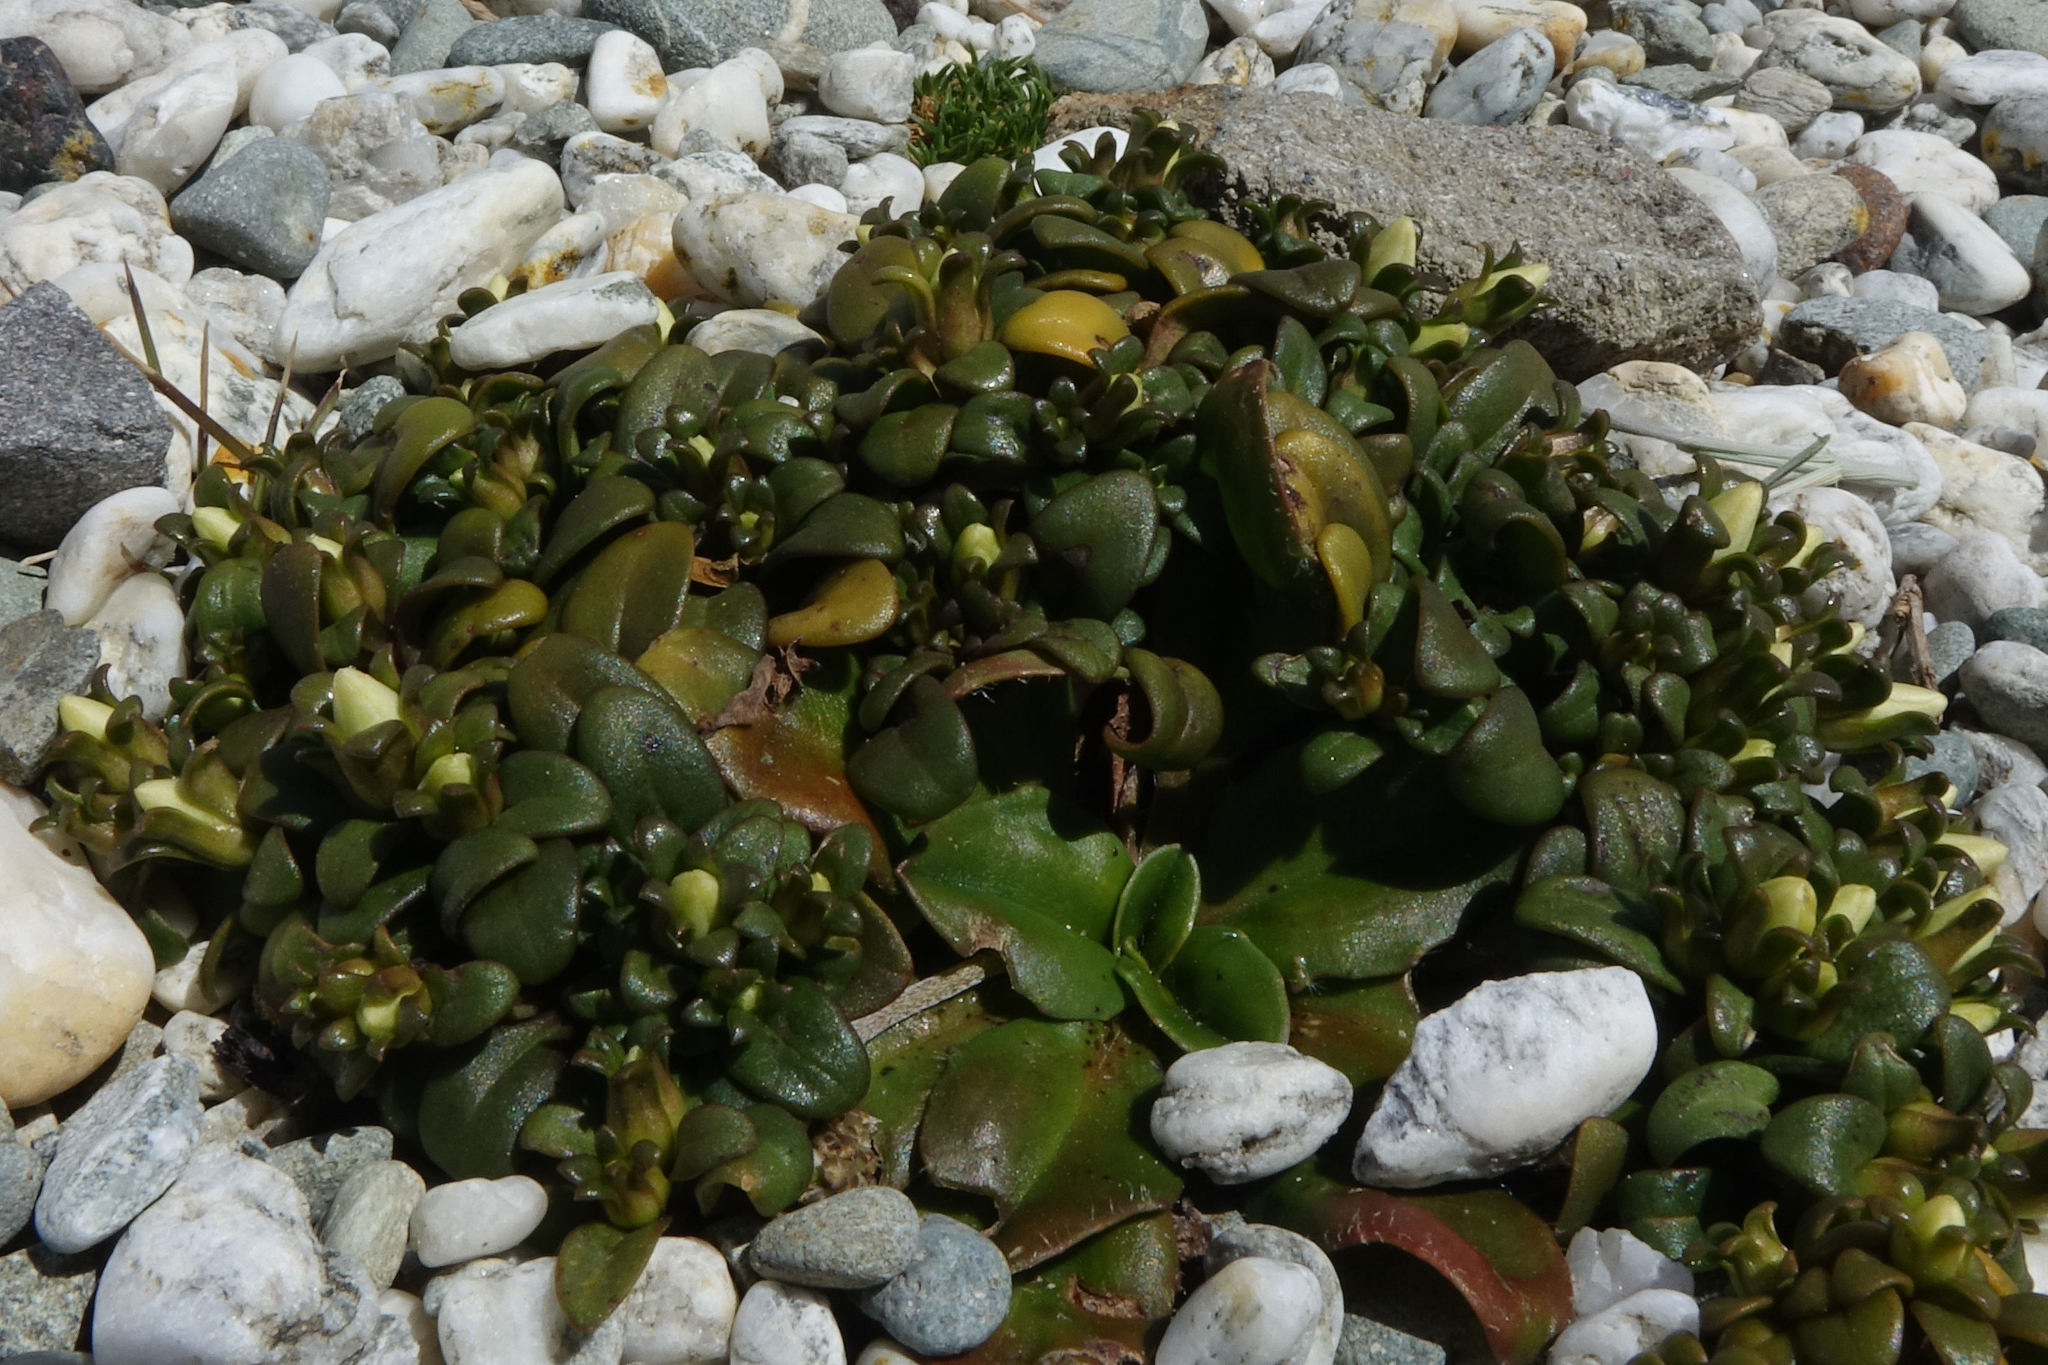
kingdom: Plantae
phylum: Tracheophyta
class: Magnoliopsida
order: Gentianales
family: Gentianaceae
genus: Gentianella
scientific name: Gentianella saxosa
